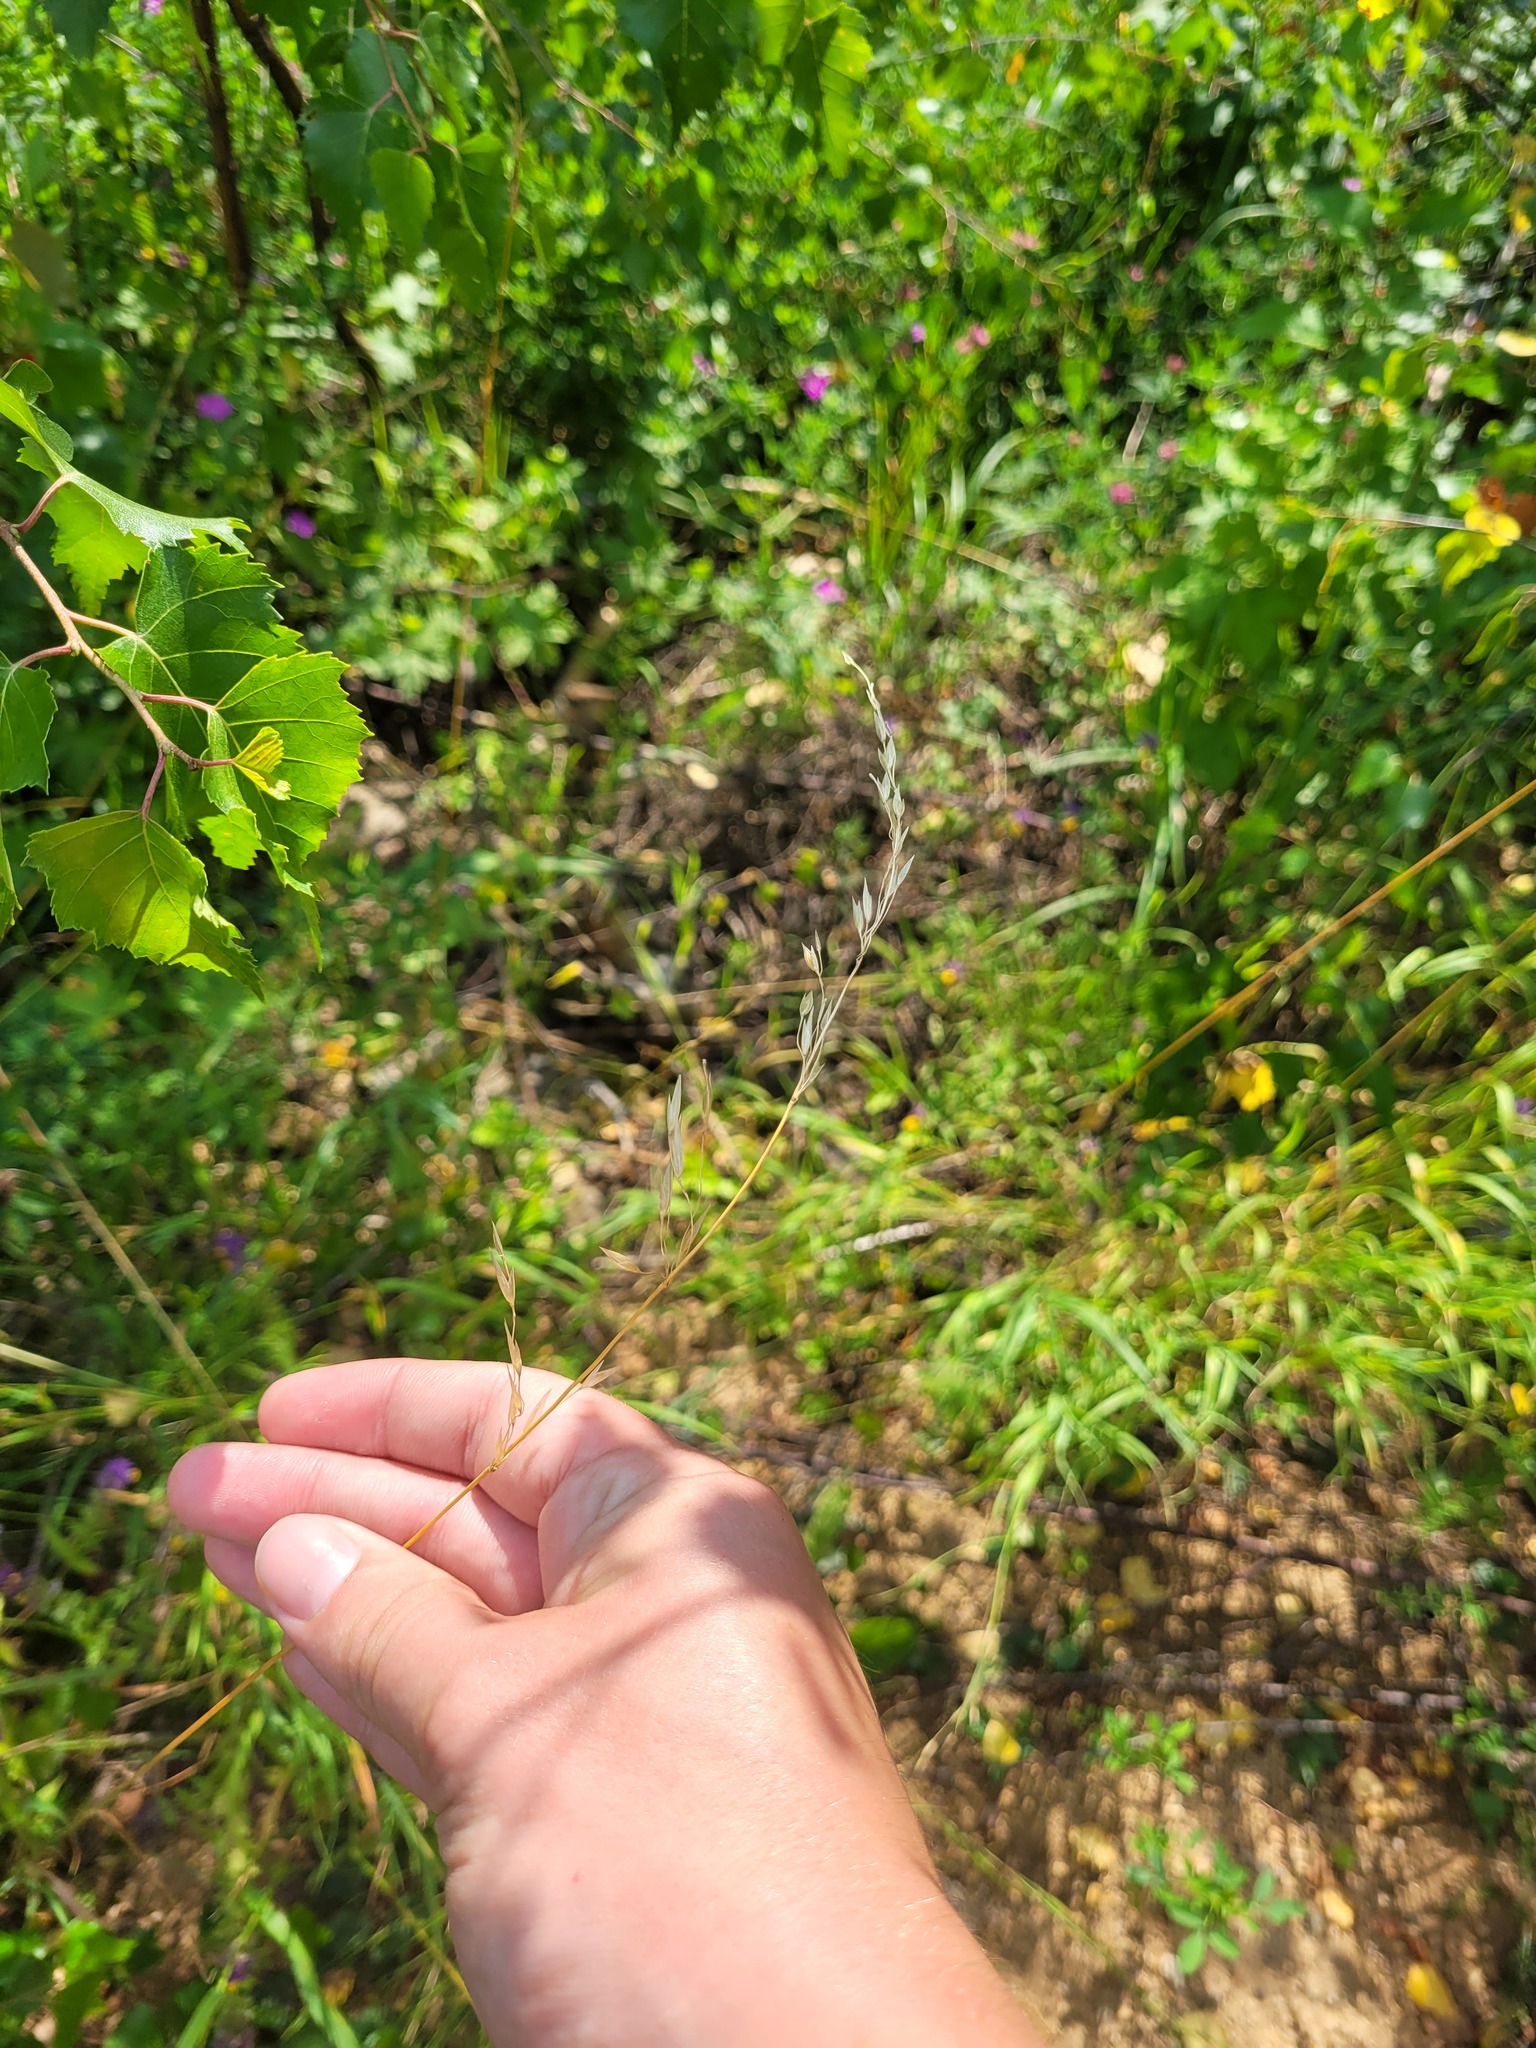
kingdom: Plantae
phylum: Tracheophyta
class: Liliopsida
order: Poales
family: Poaceae
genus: Arrhenatherum
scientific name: Arrhenatherum elatius
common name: Tall oatgrass
